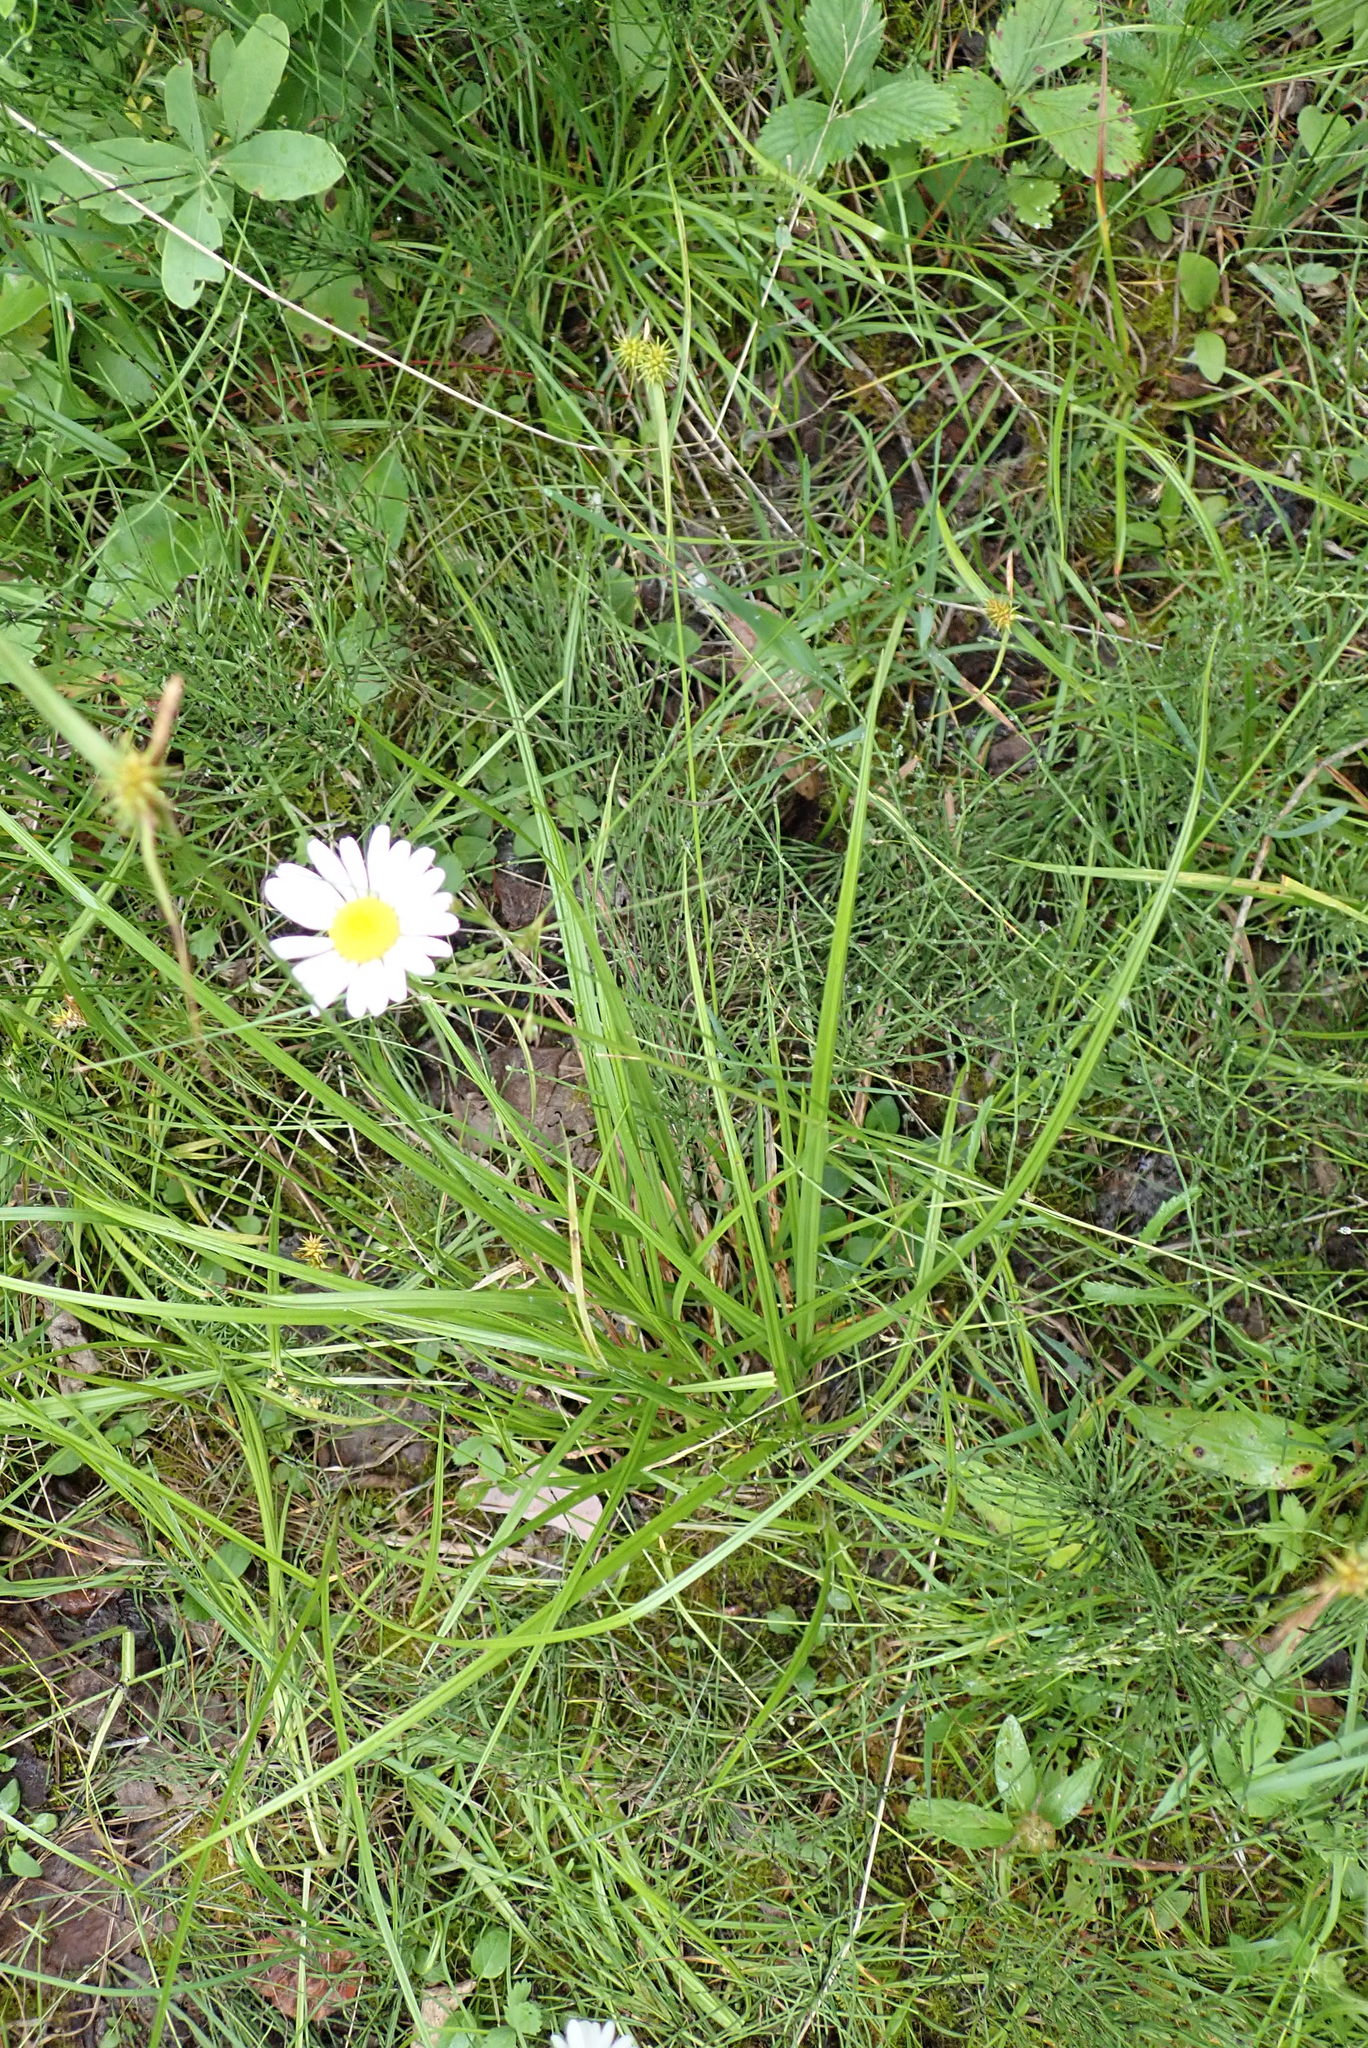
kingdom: Plantae
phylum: Tracheophyta
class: Liliopsida
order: Poales
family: Cyperaceae
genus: Carex
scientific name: Carex flava
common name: Large yellow-sedge
